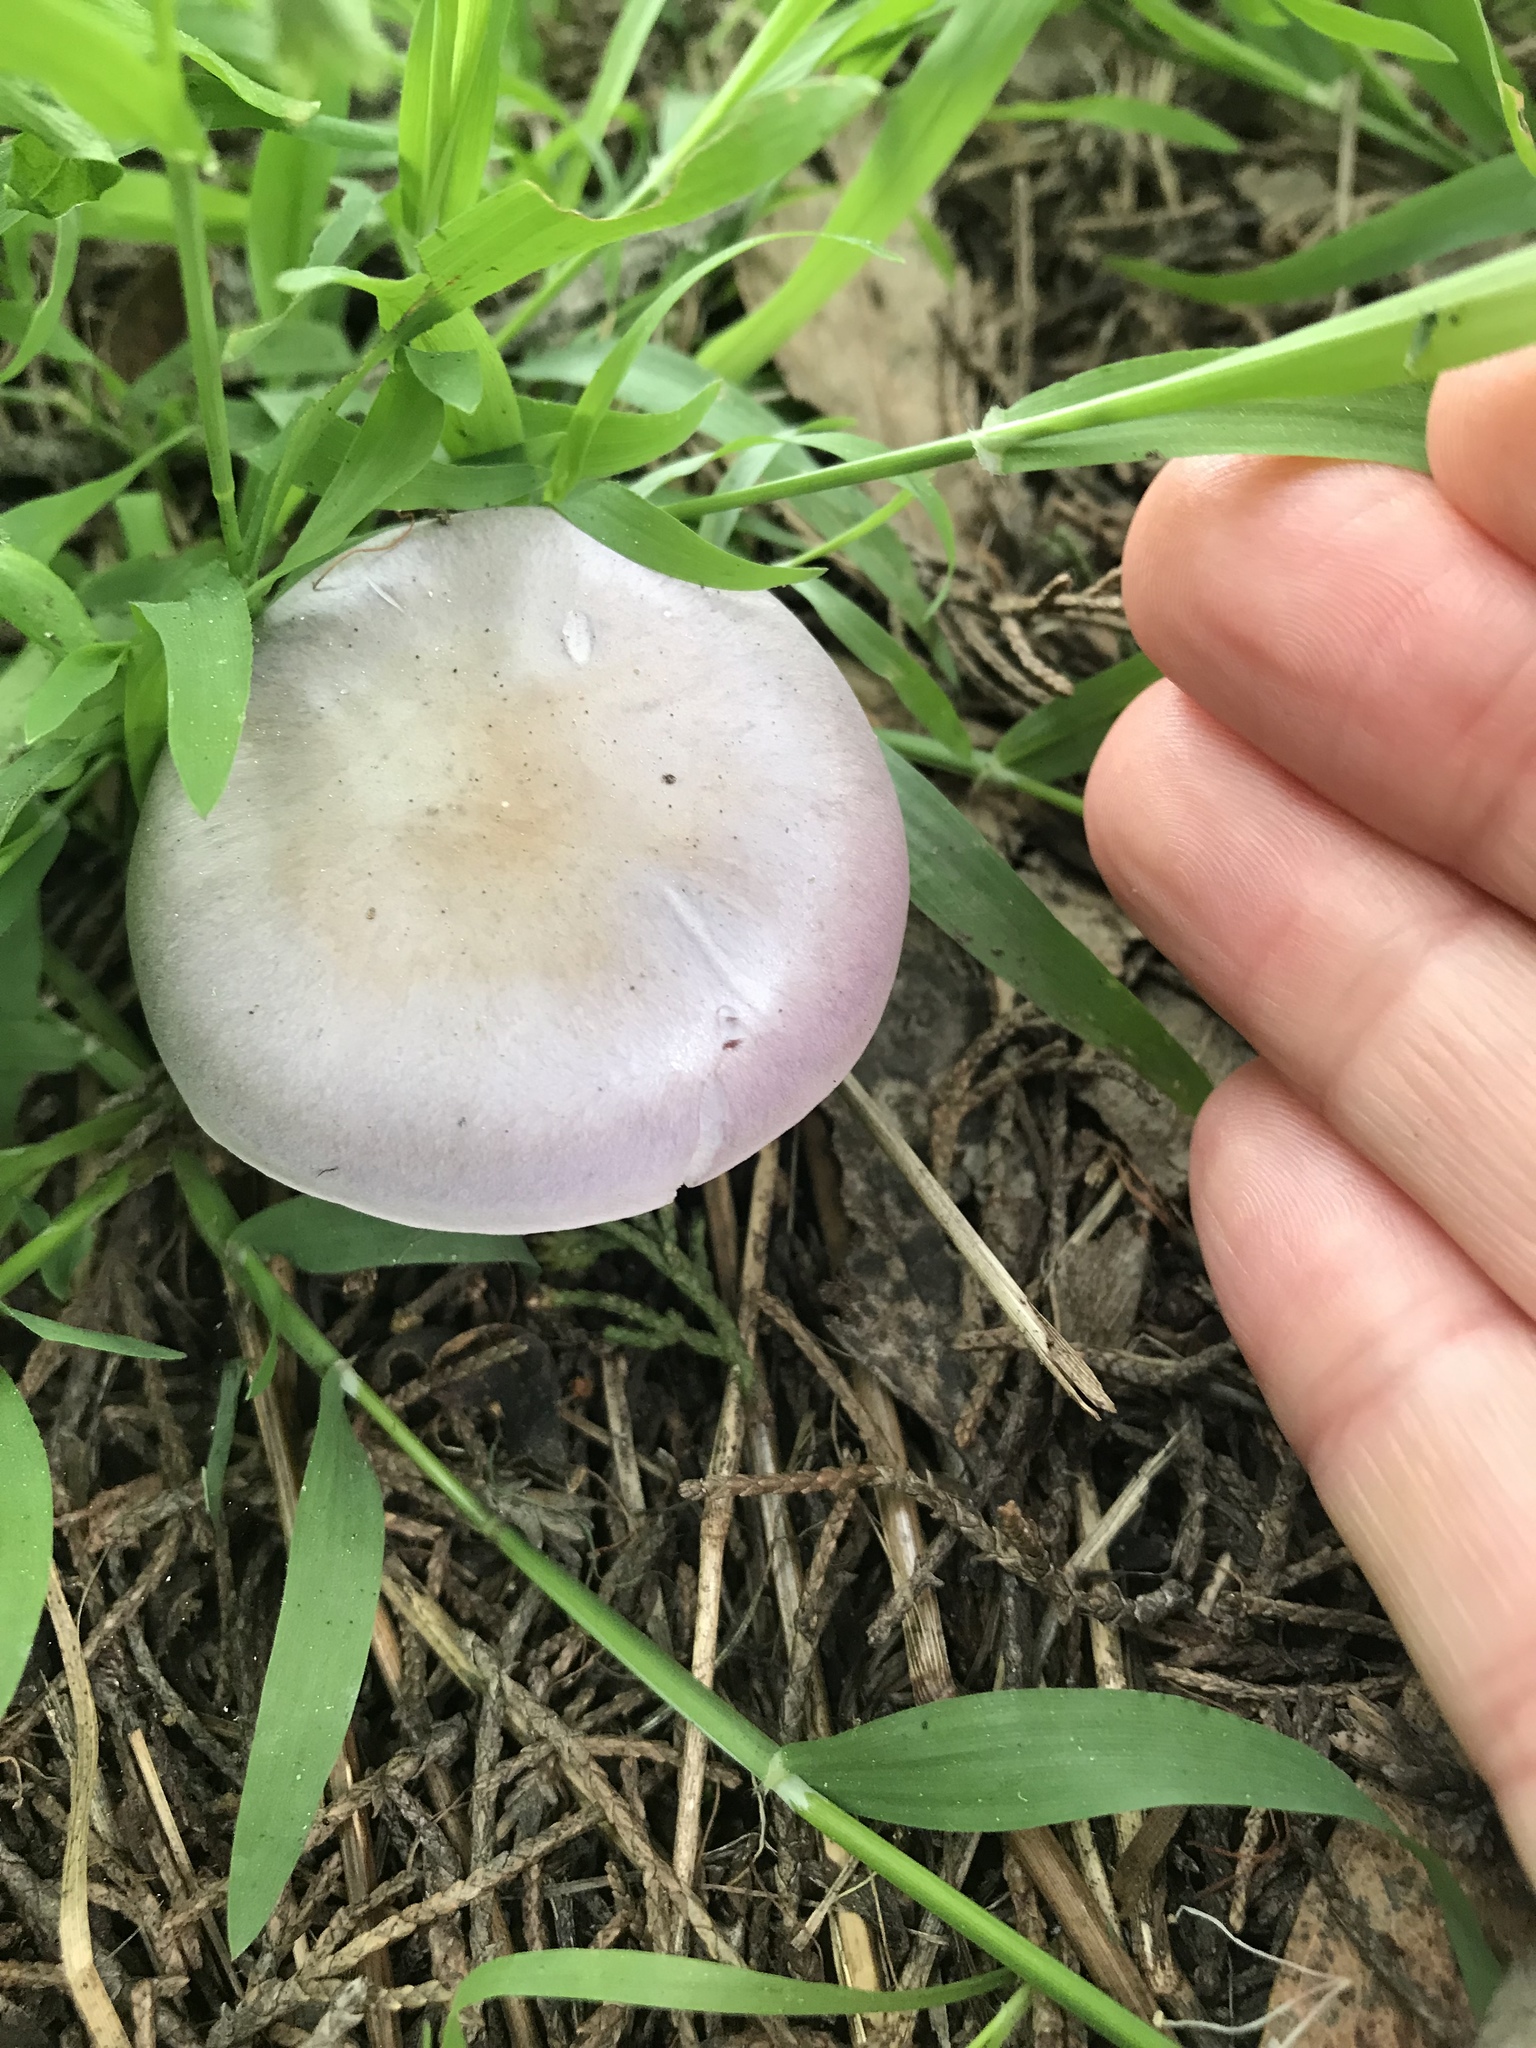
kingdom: Fungi
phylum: Basidiomycota
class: Agaricomycetes
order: Agaricales
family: Tricholomataceae
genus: Collybia
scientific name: Collybia
